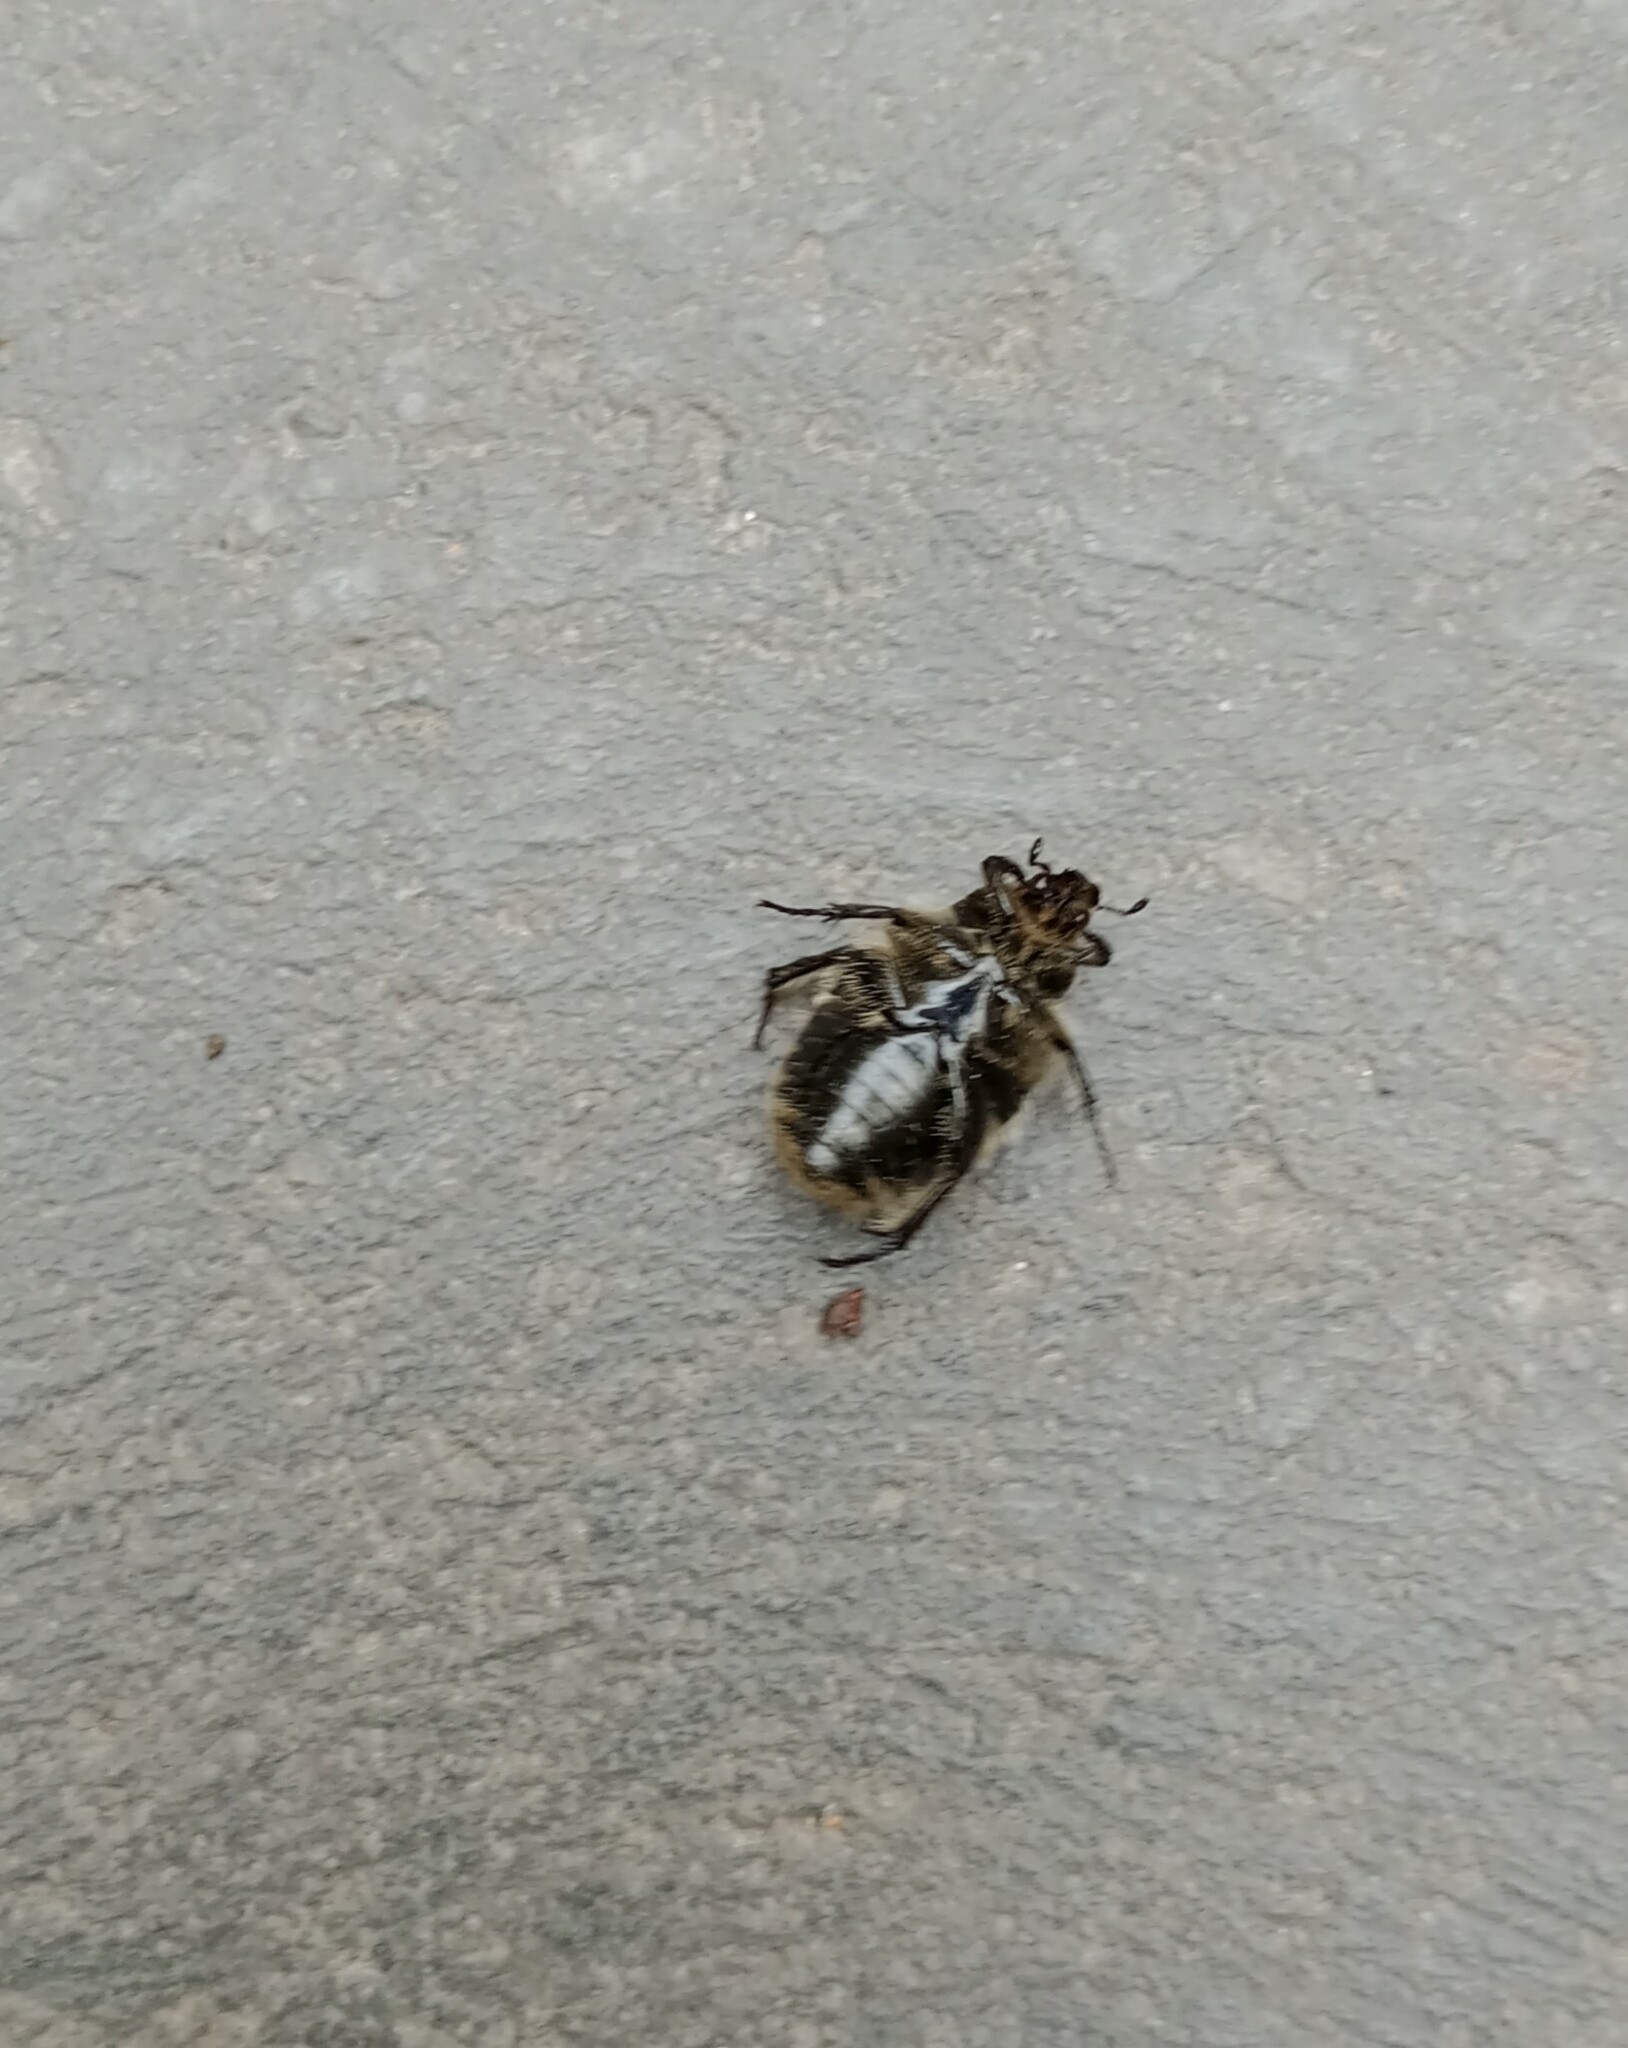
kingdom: Animalia
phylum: Arthropoda
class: Insecta
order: Coleoptera
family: Scarabaeidae
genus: Euphoria
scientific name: Euphoria basalis
